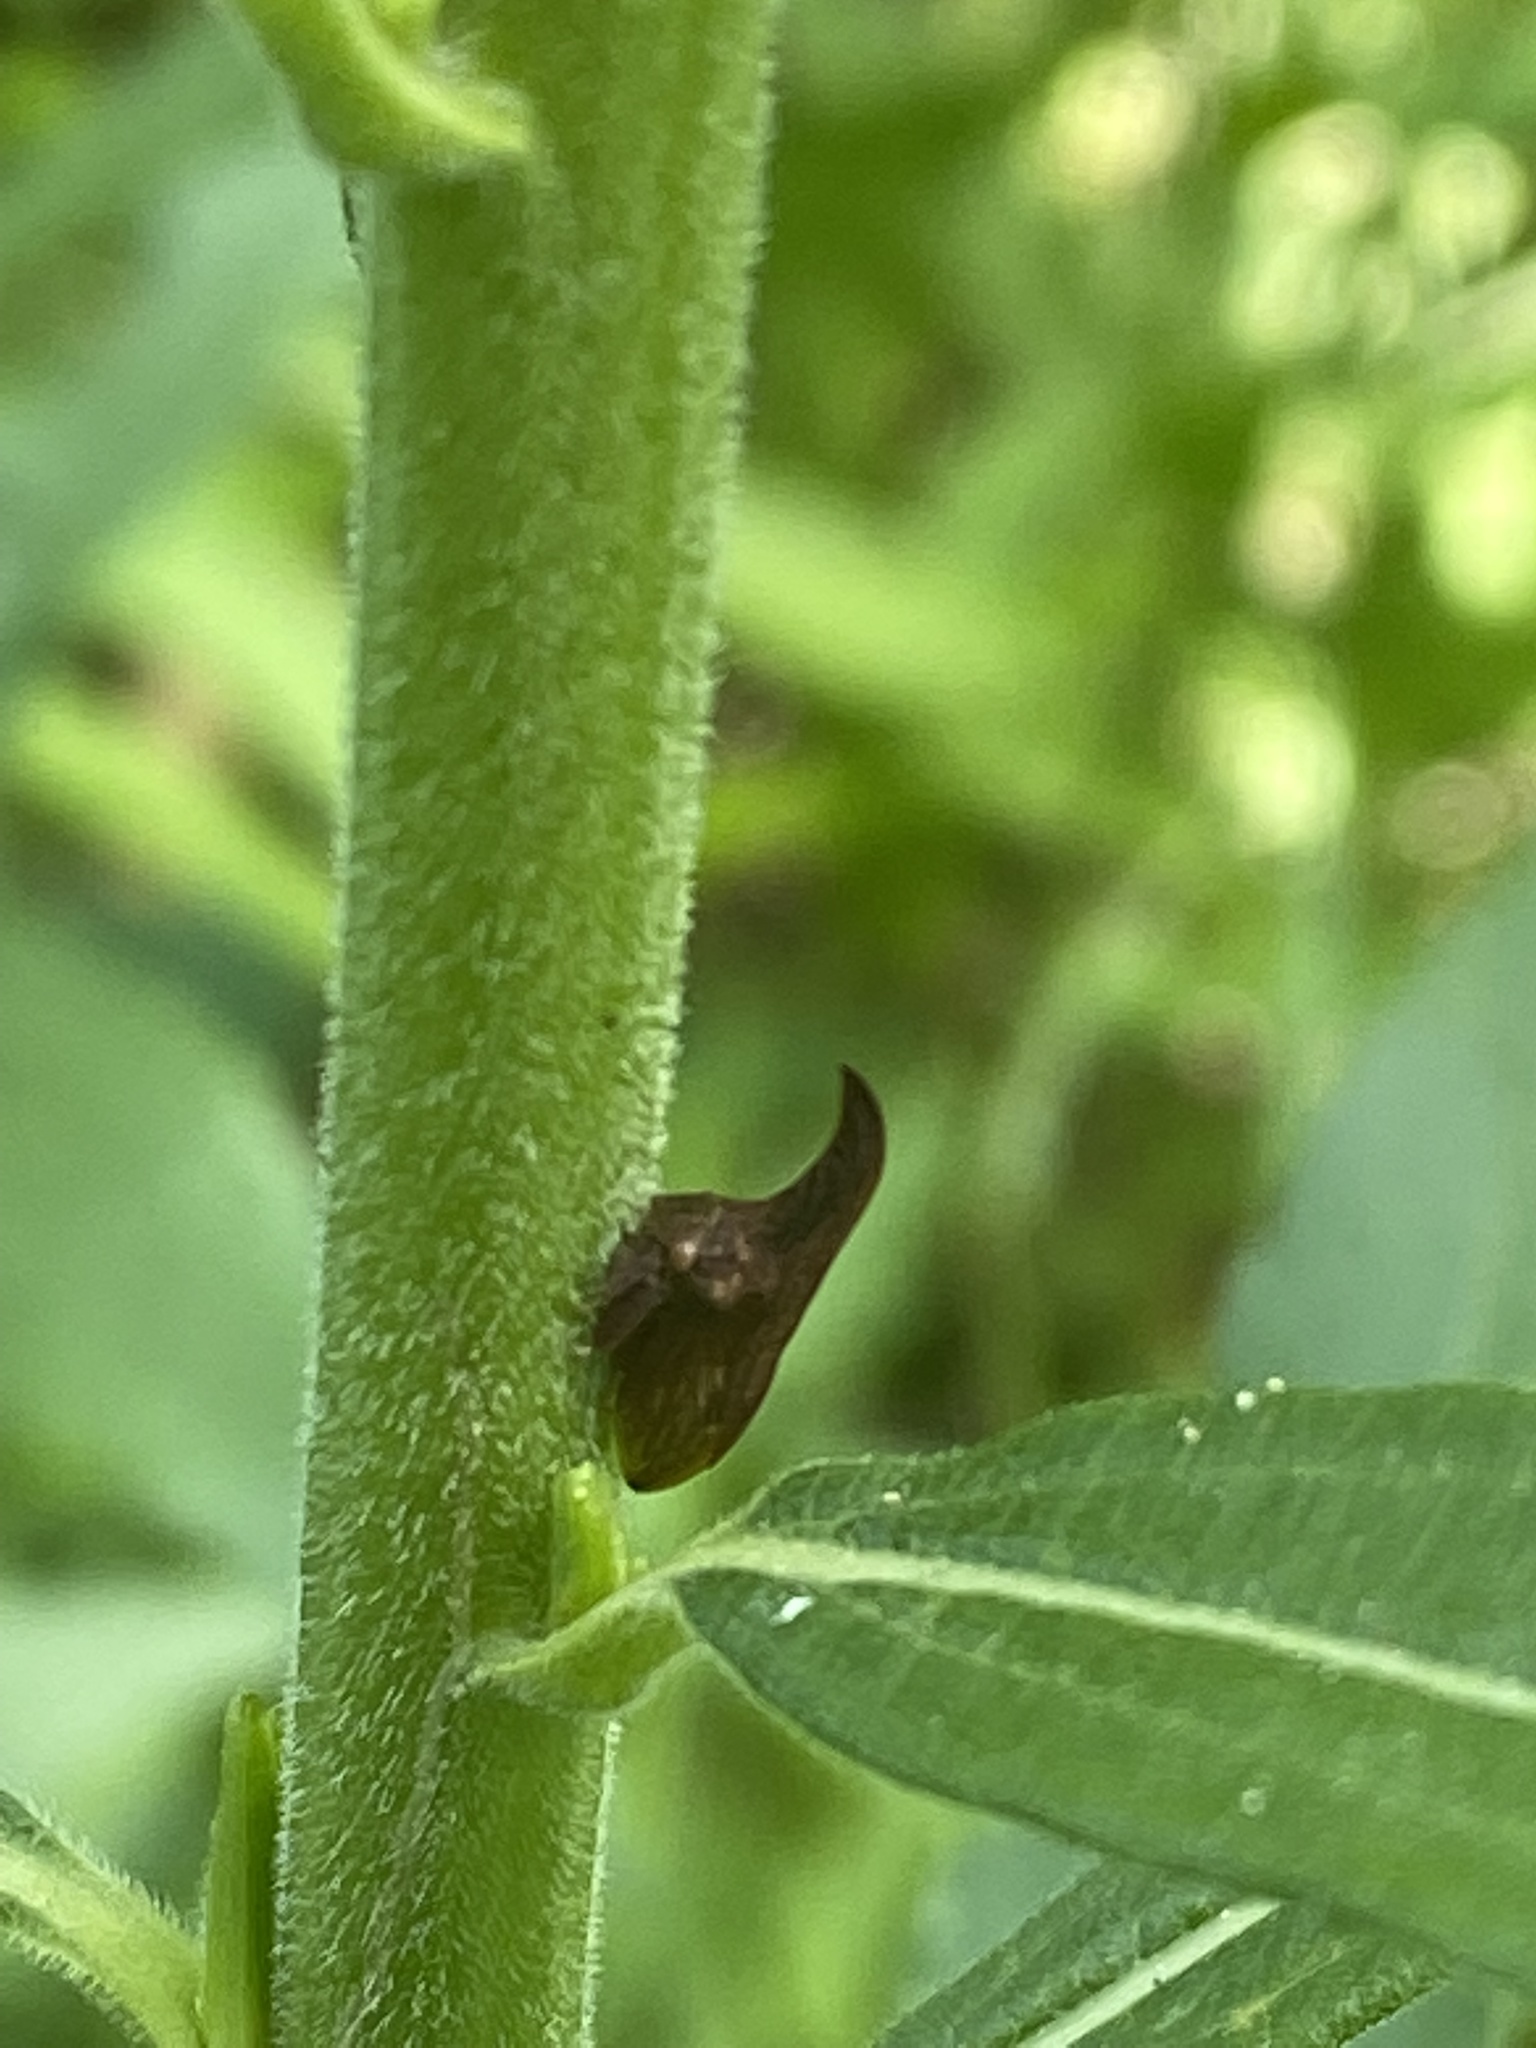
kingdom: Animalia
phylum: Arthropoda
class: Insecta
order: Hemiptera
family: Membracidae
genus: Enchenopa
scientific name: Enchenopa latipes
